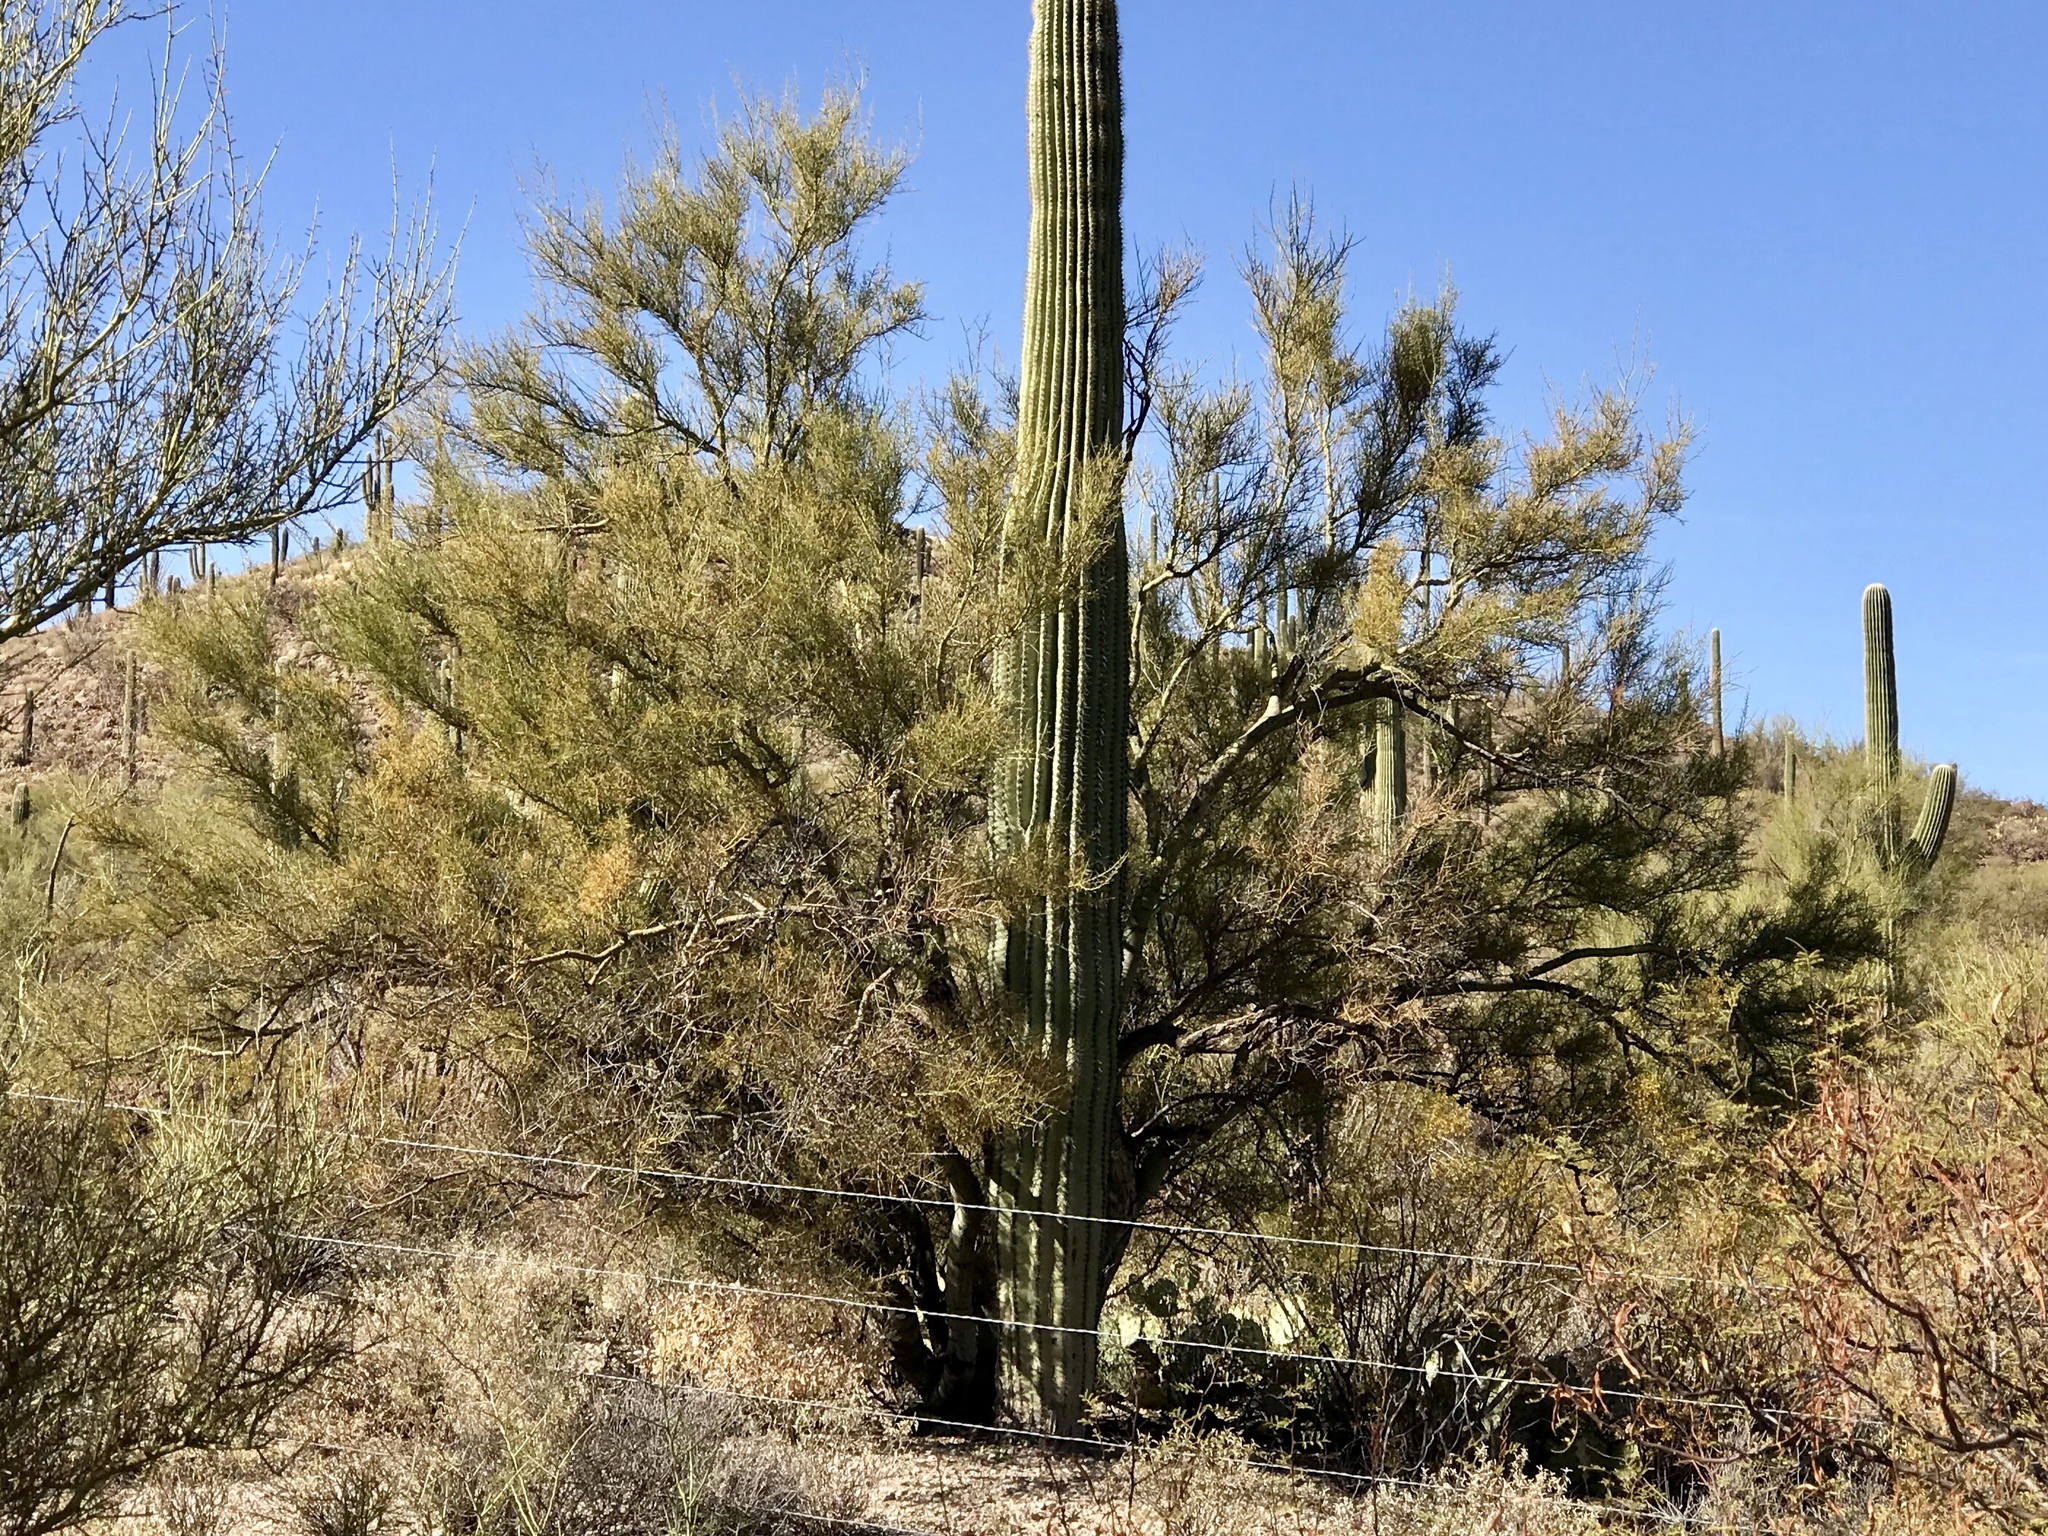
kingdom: Plantae
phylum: Tracheophyta
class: Magnoliopsida
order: Fabales
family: Fabaceae
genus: Parkinsonia
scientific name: Parkinsonia microphylla
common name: Yellow paloverde
